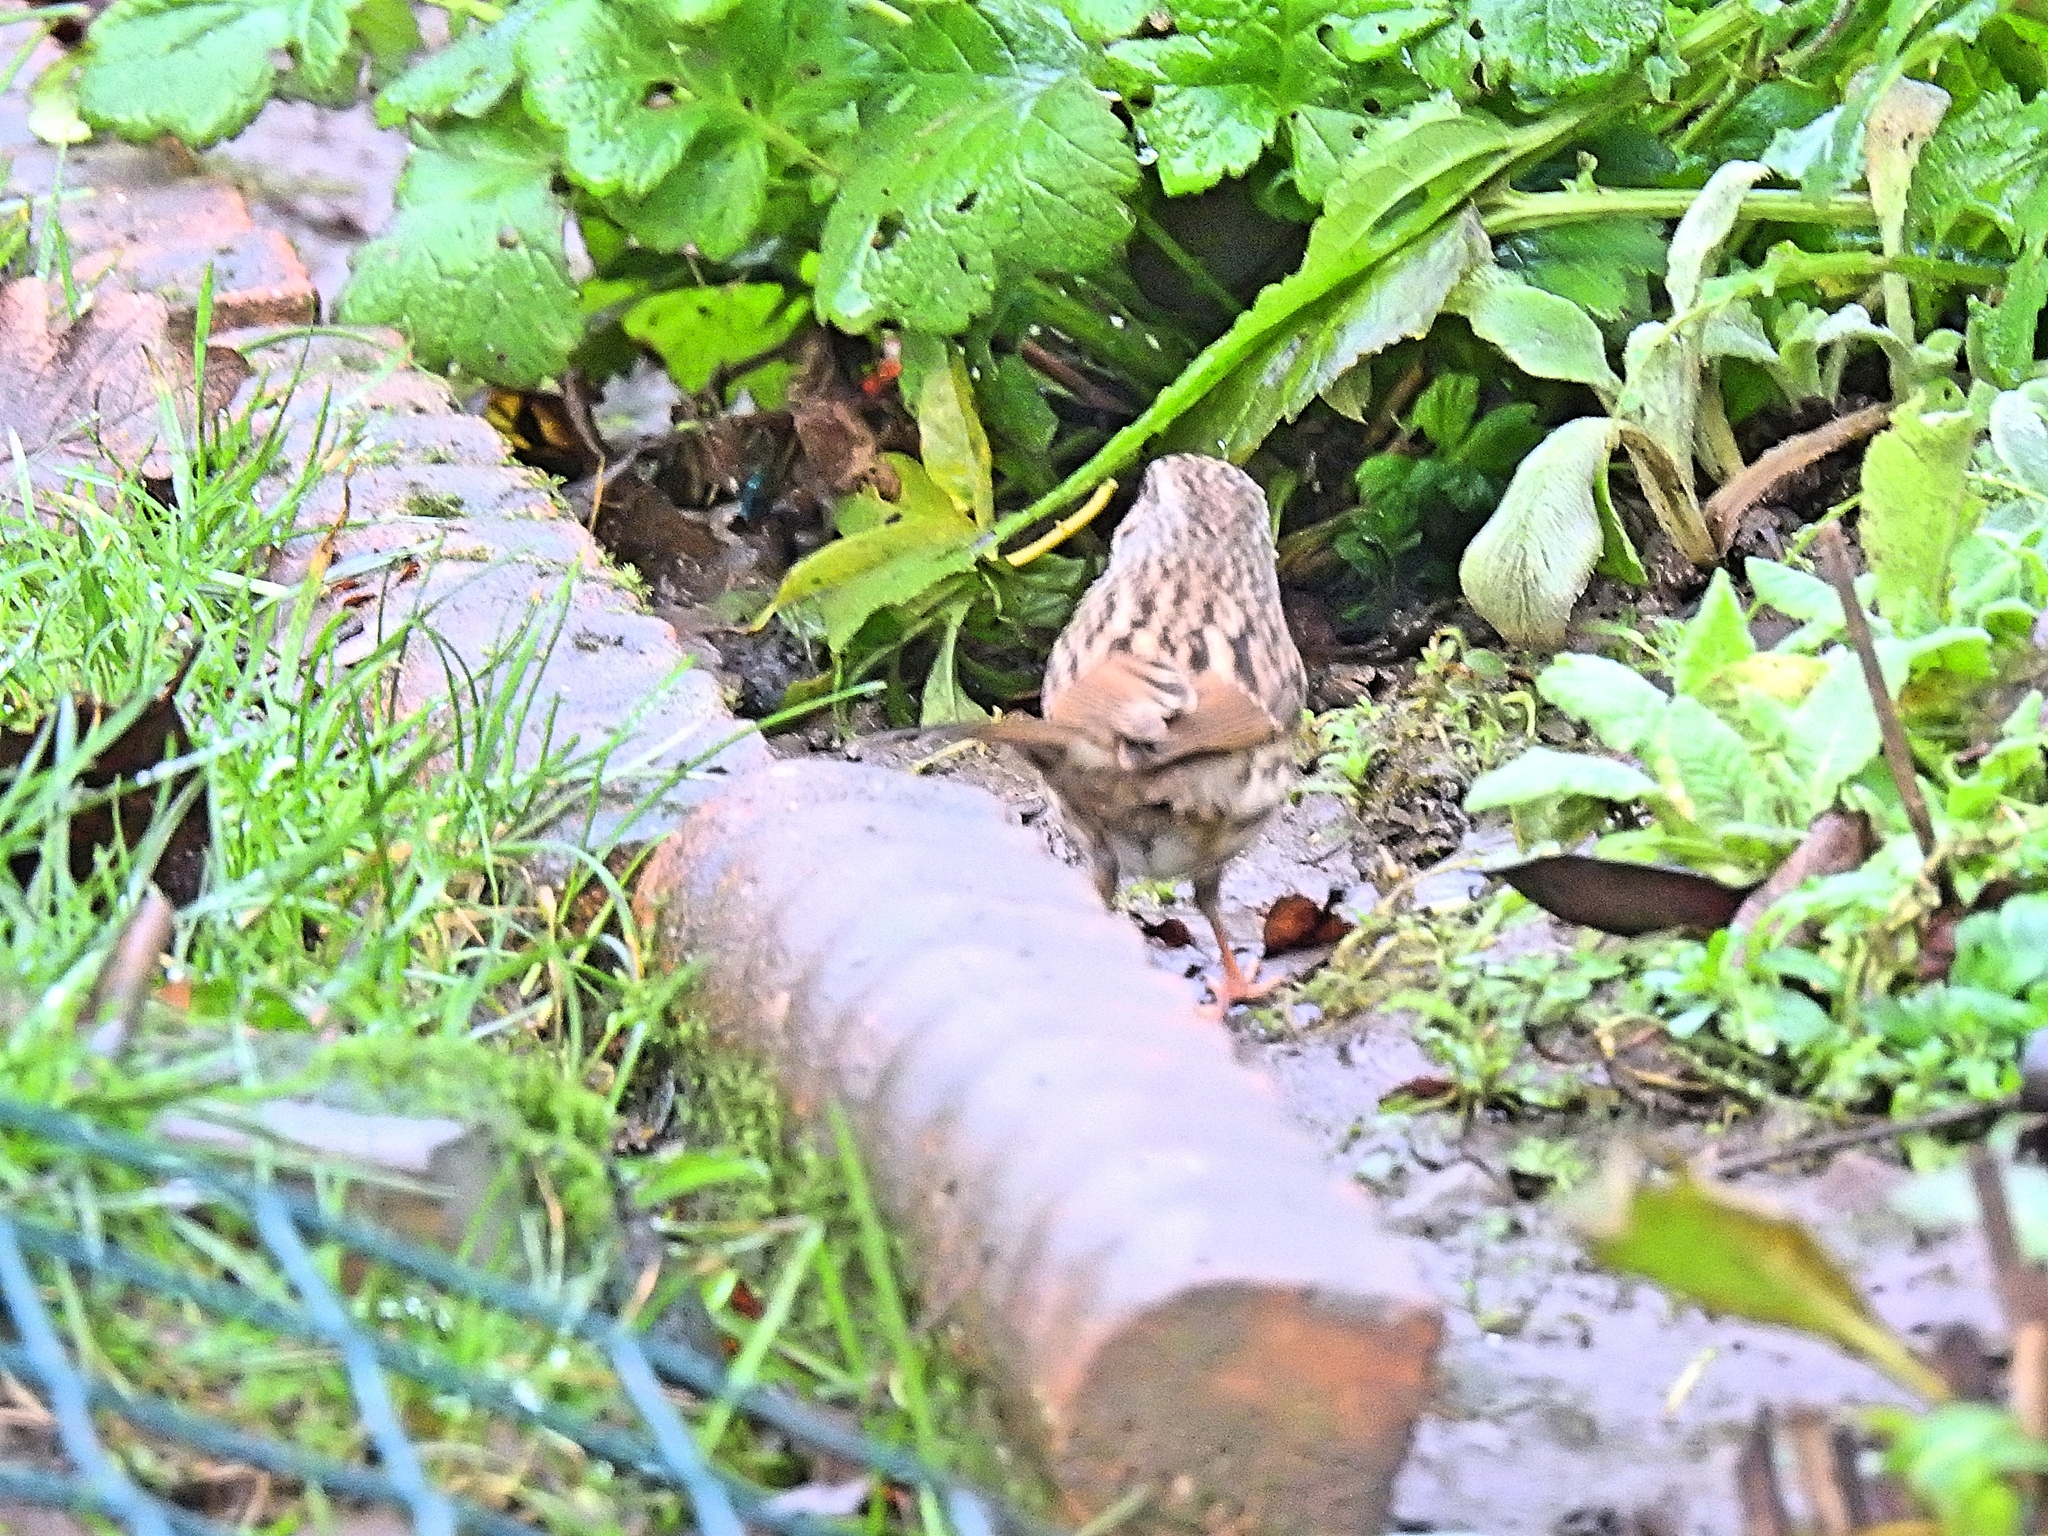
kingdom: Animalia
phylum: Chordata
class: Aves
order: Passeriformes
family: Prunellidae
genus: Prunella
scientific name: Prunella modularis
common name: Dunnock
